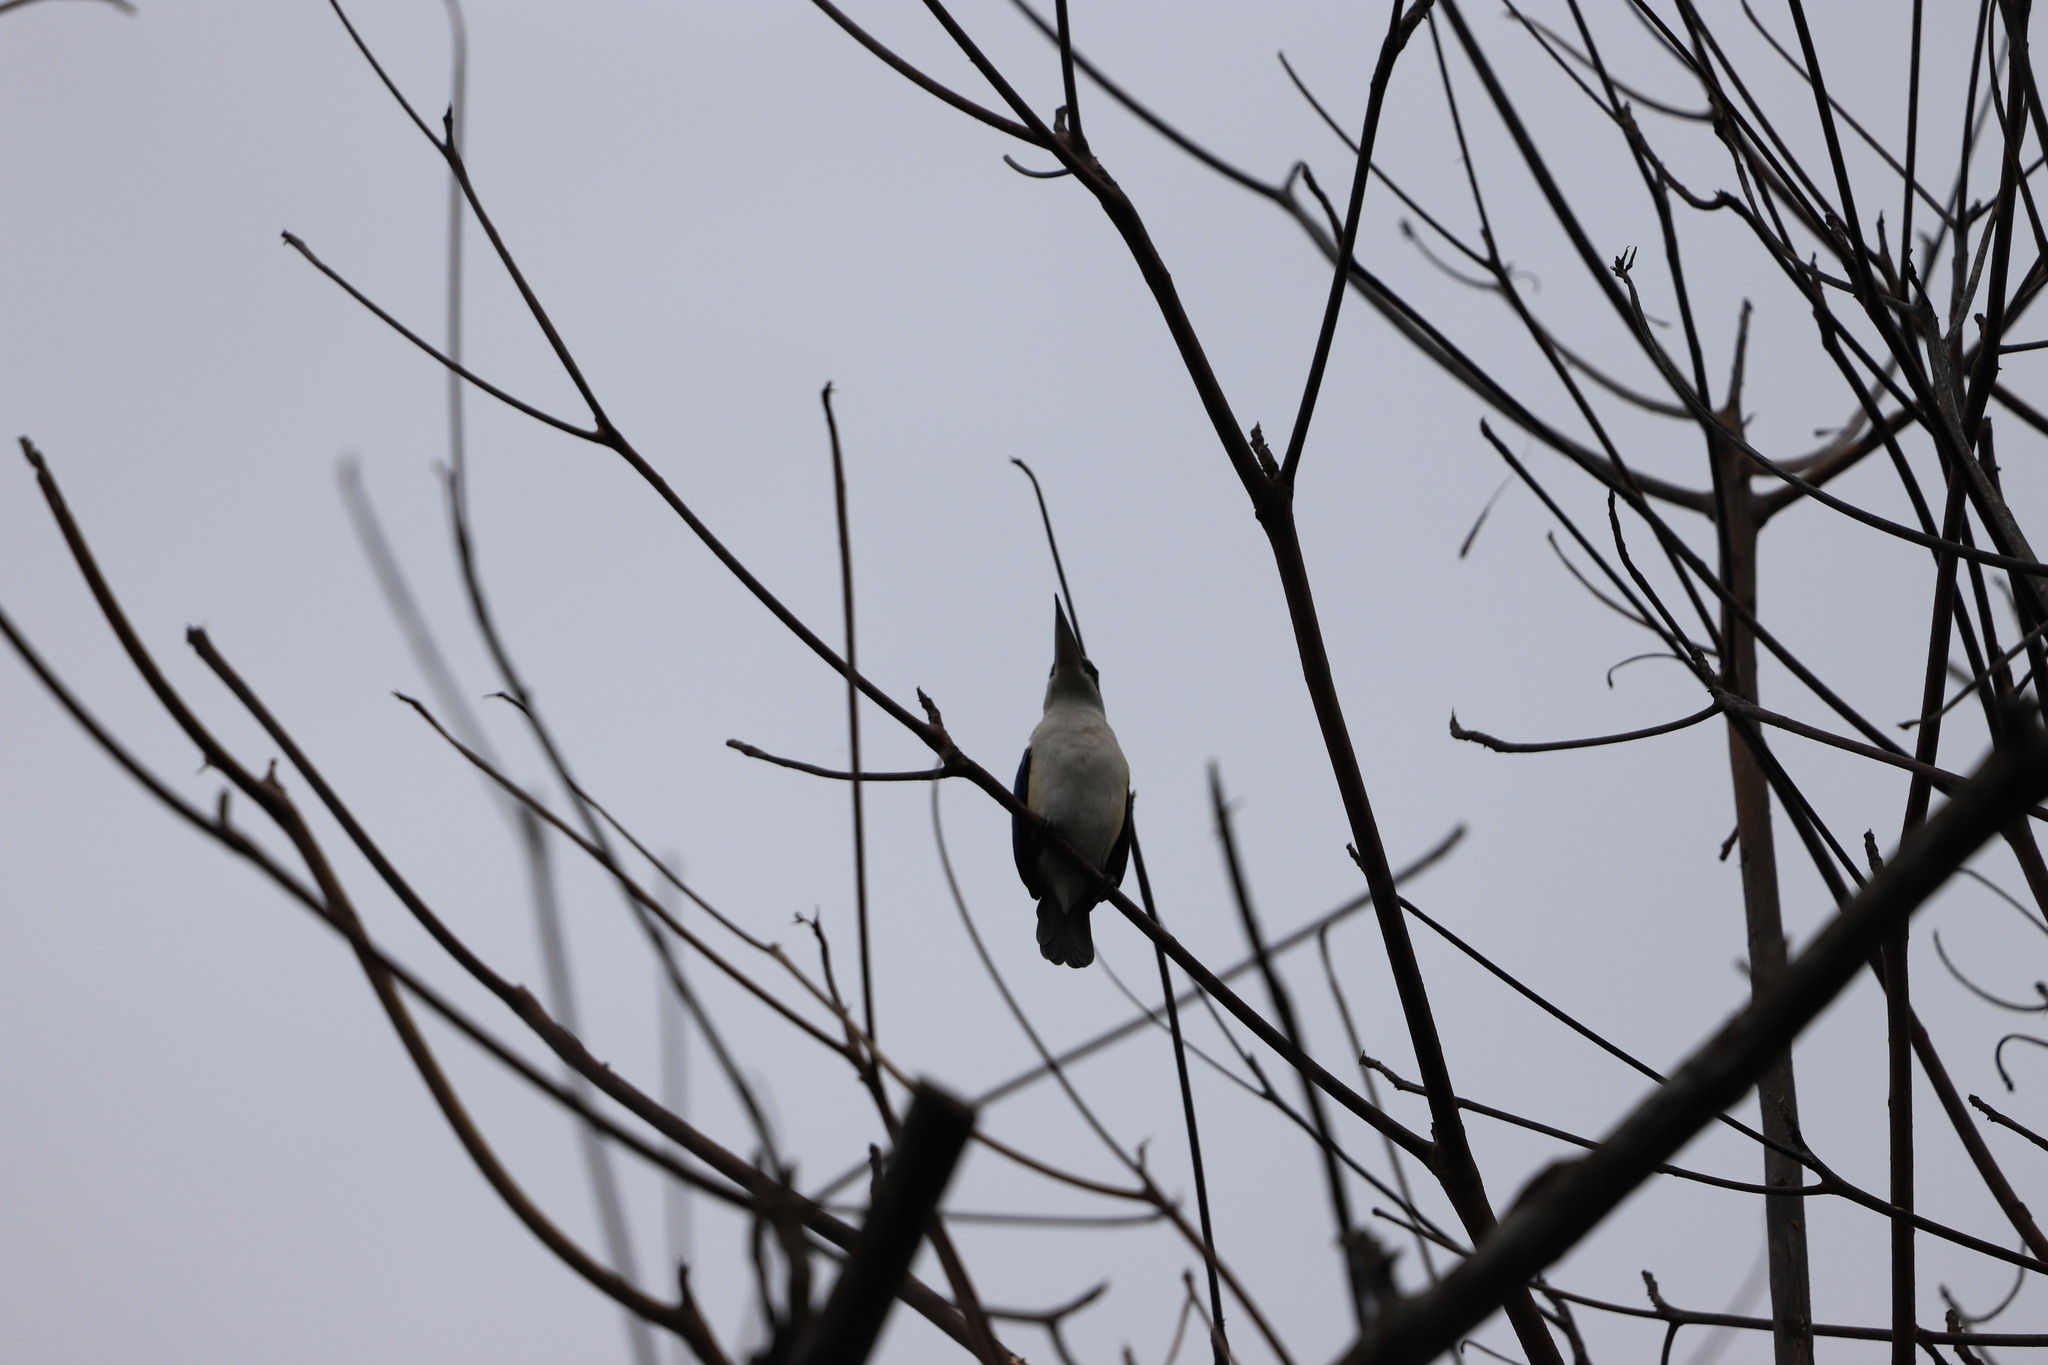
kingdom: Animalia
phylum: Chordata
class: Aves
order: Coraciiformes
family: Alcedinidae
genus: Todiramphus
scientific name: Todiramphus chloris
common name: Collared kingfisher
